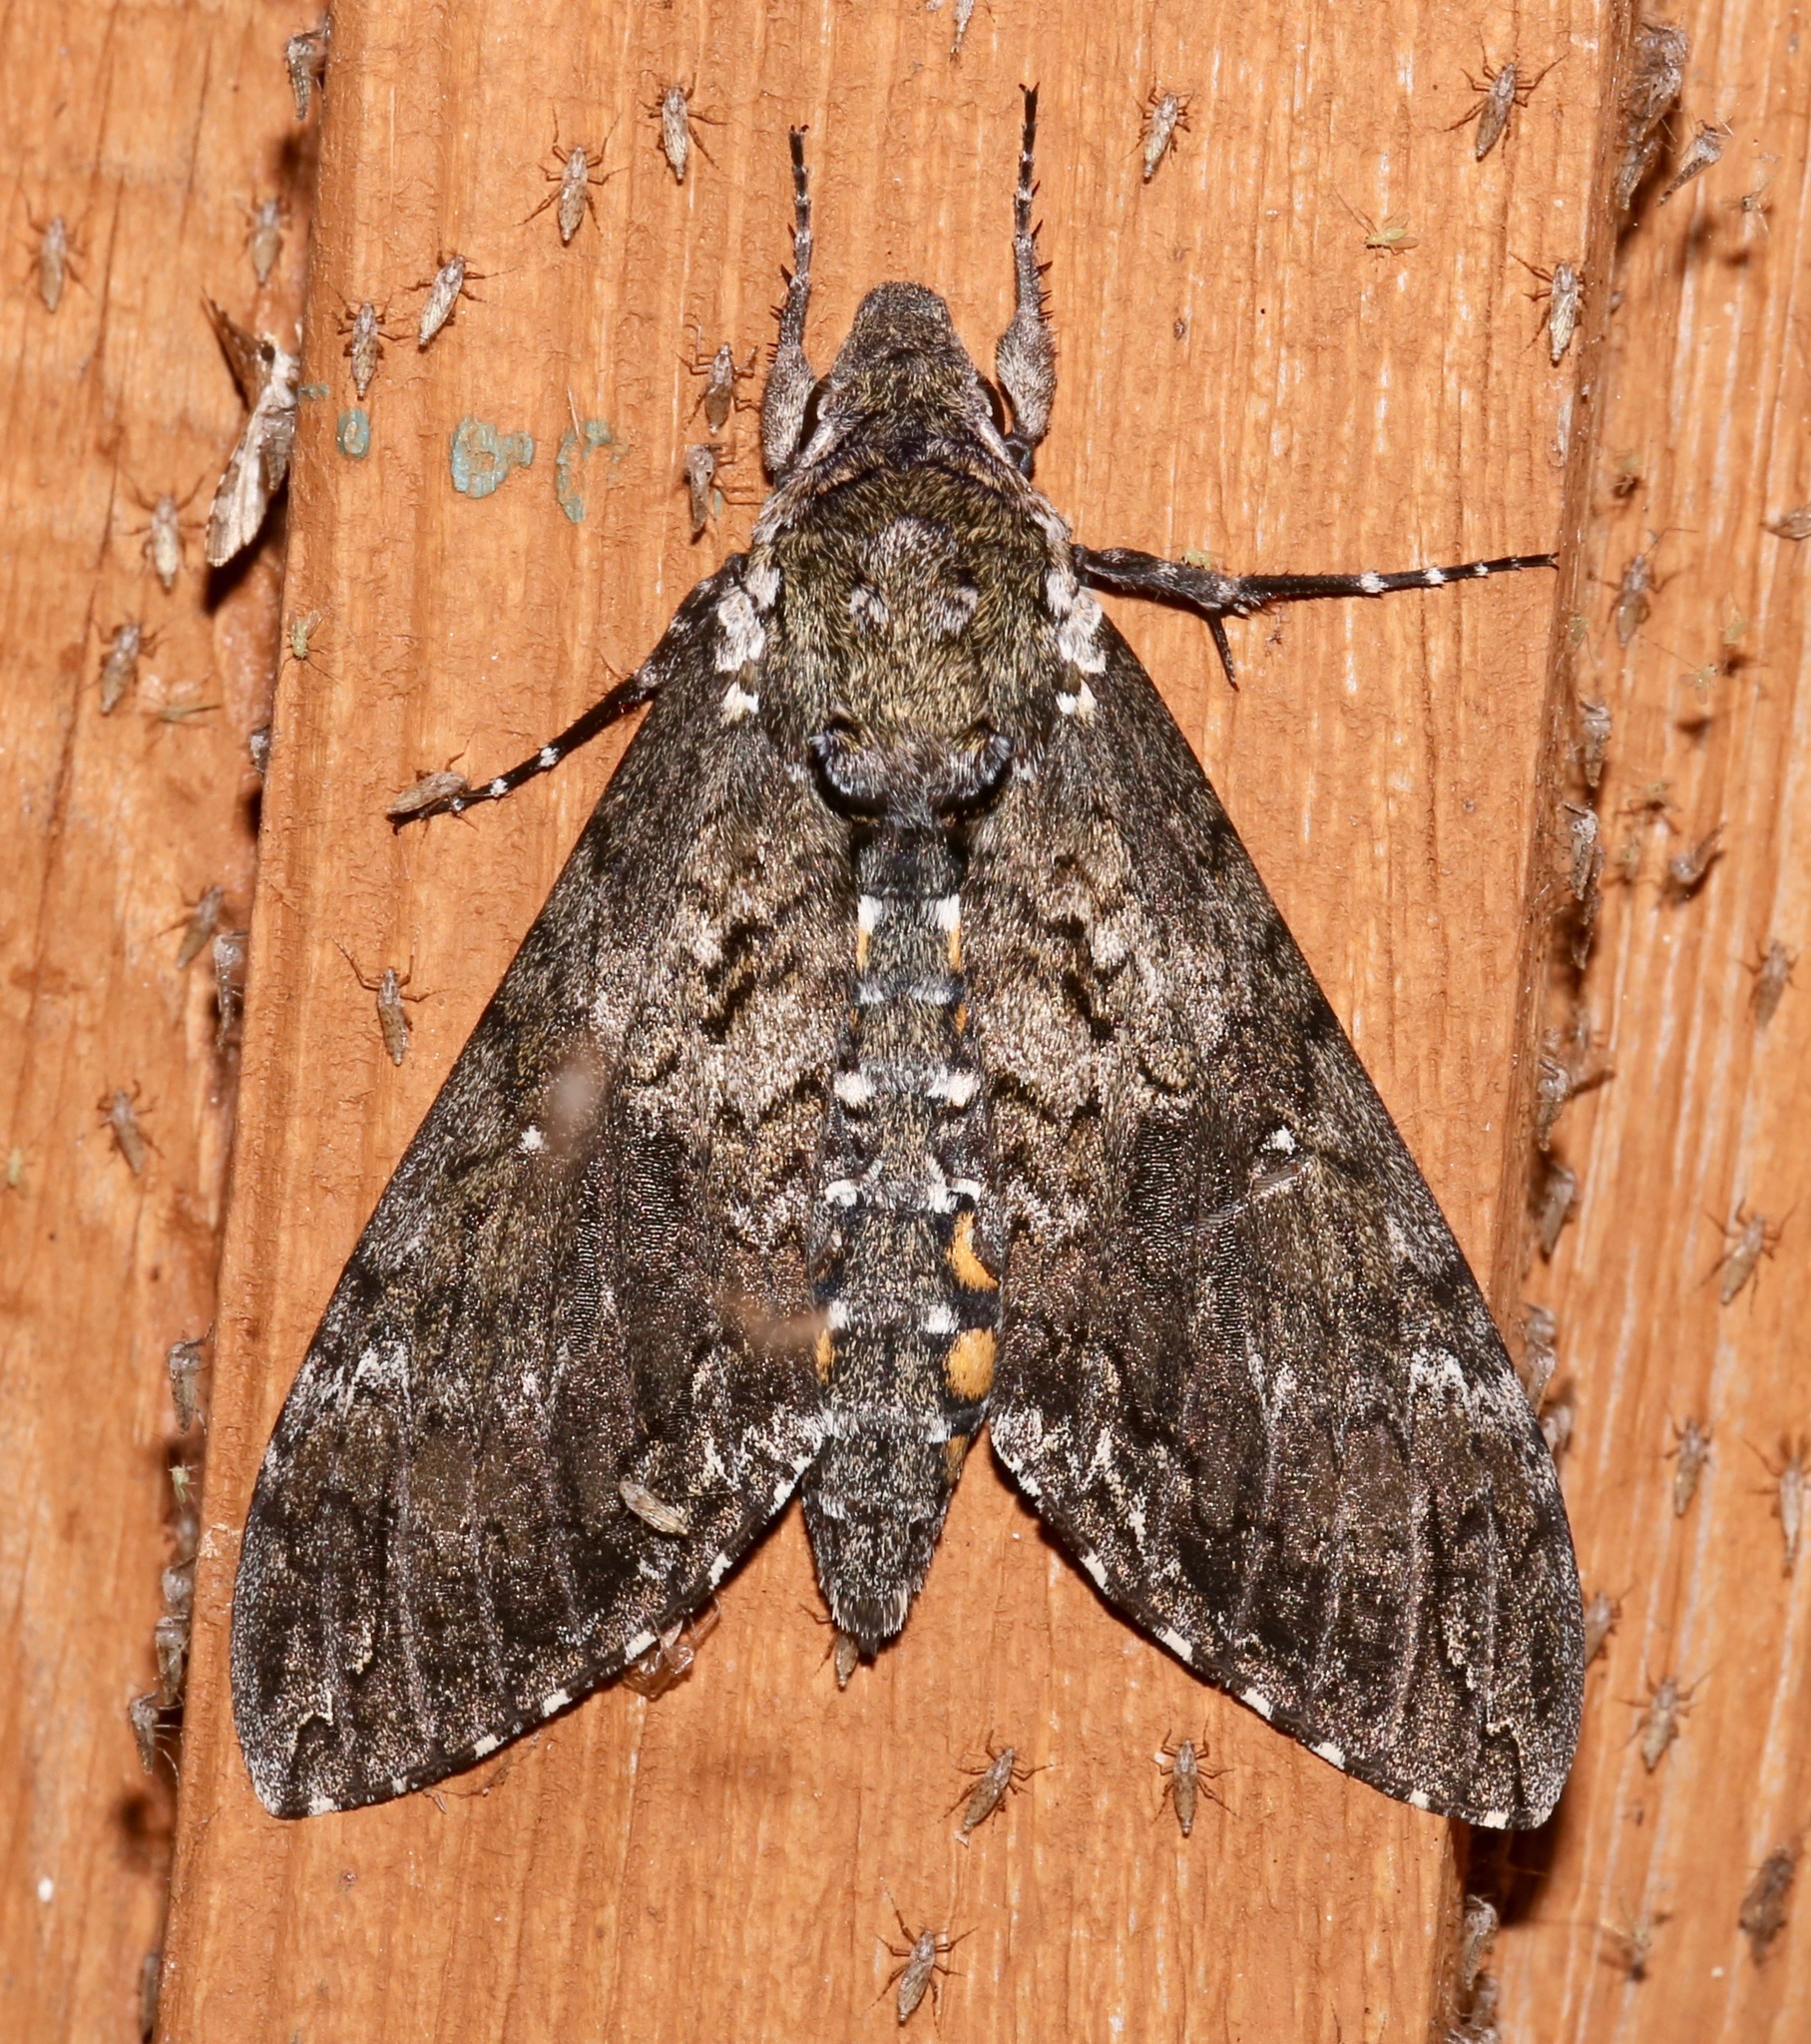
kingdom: Animalia
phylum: Arthropoda
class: Insecta
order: Lepidoptera
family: Sphingidae
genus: Manduca
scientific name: Manduca sexta
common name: Carolina sphinx
